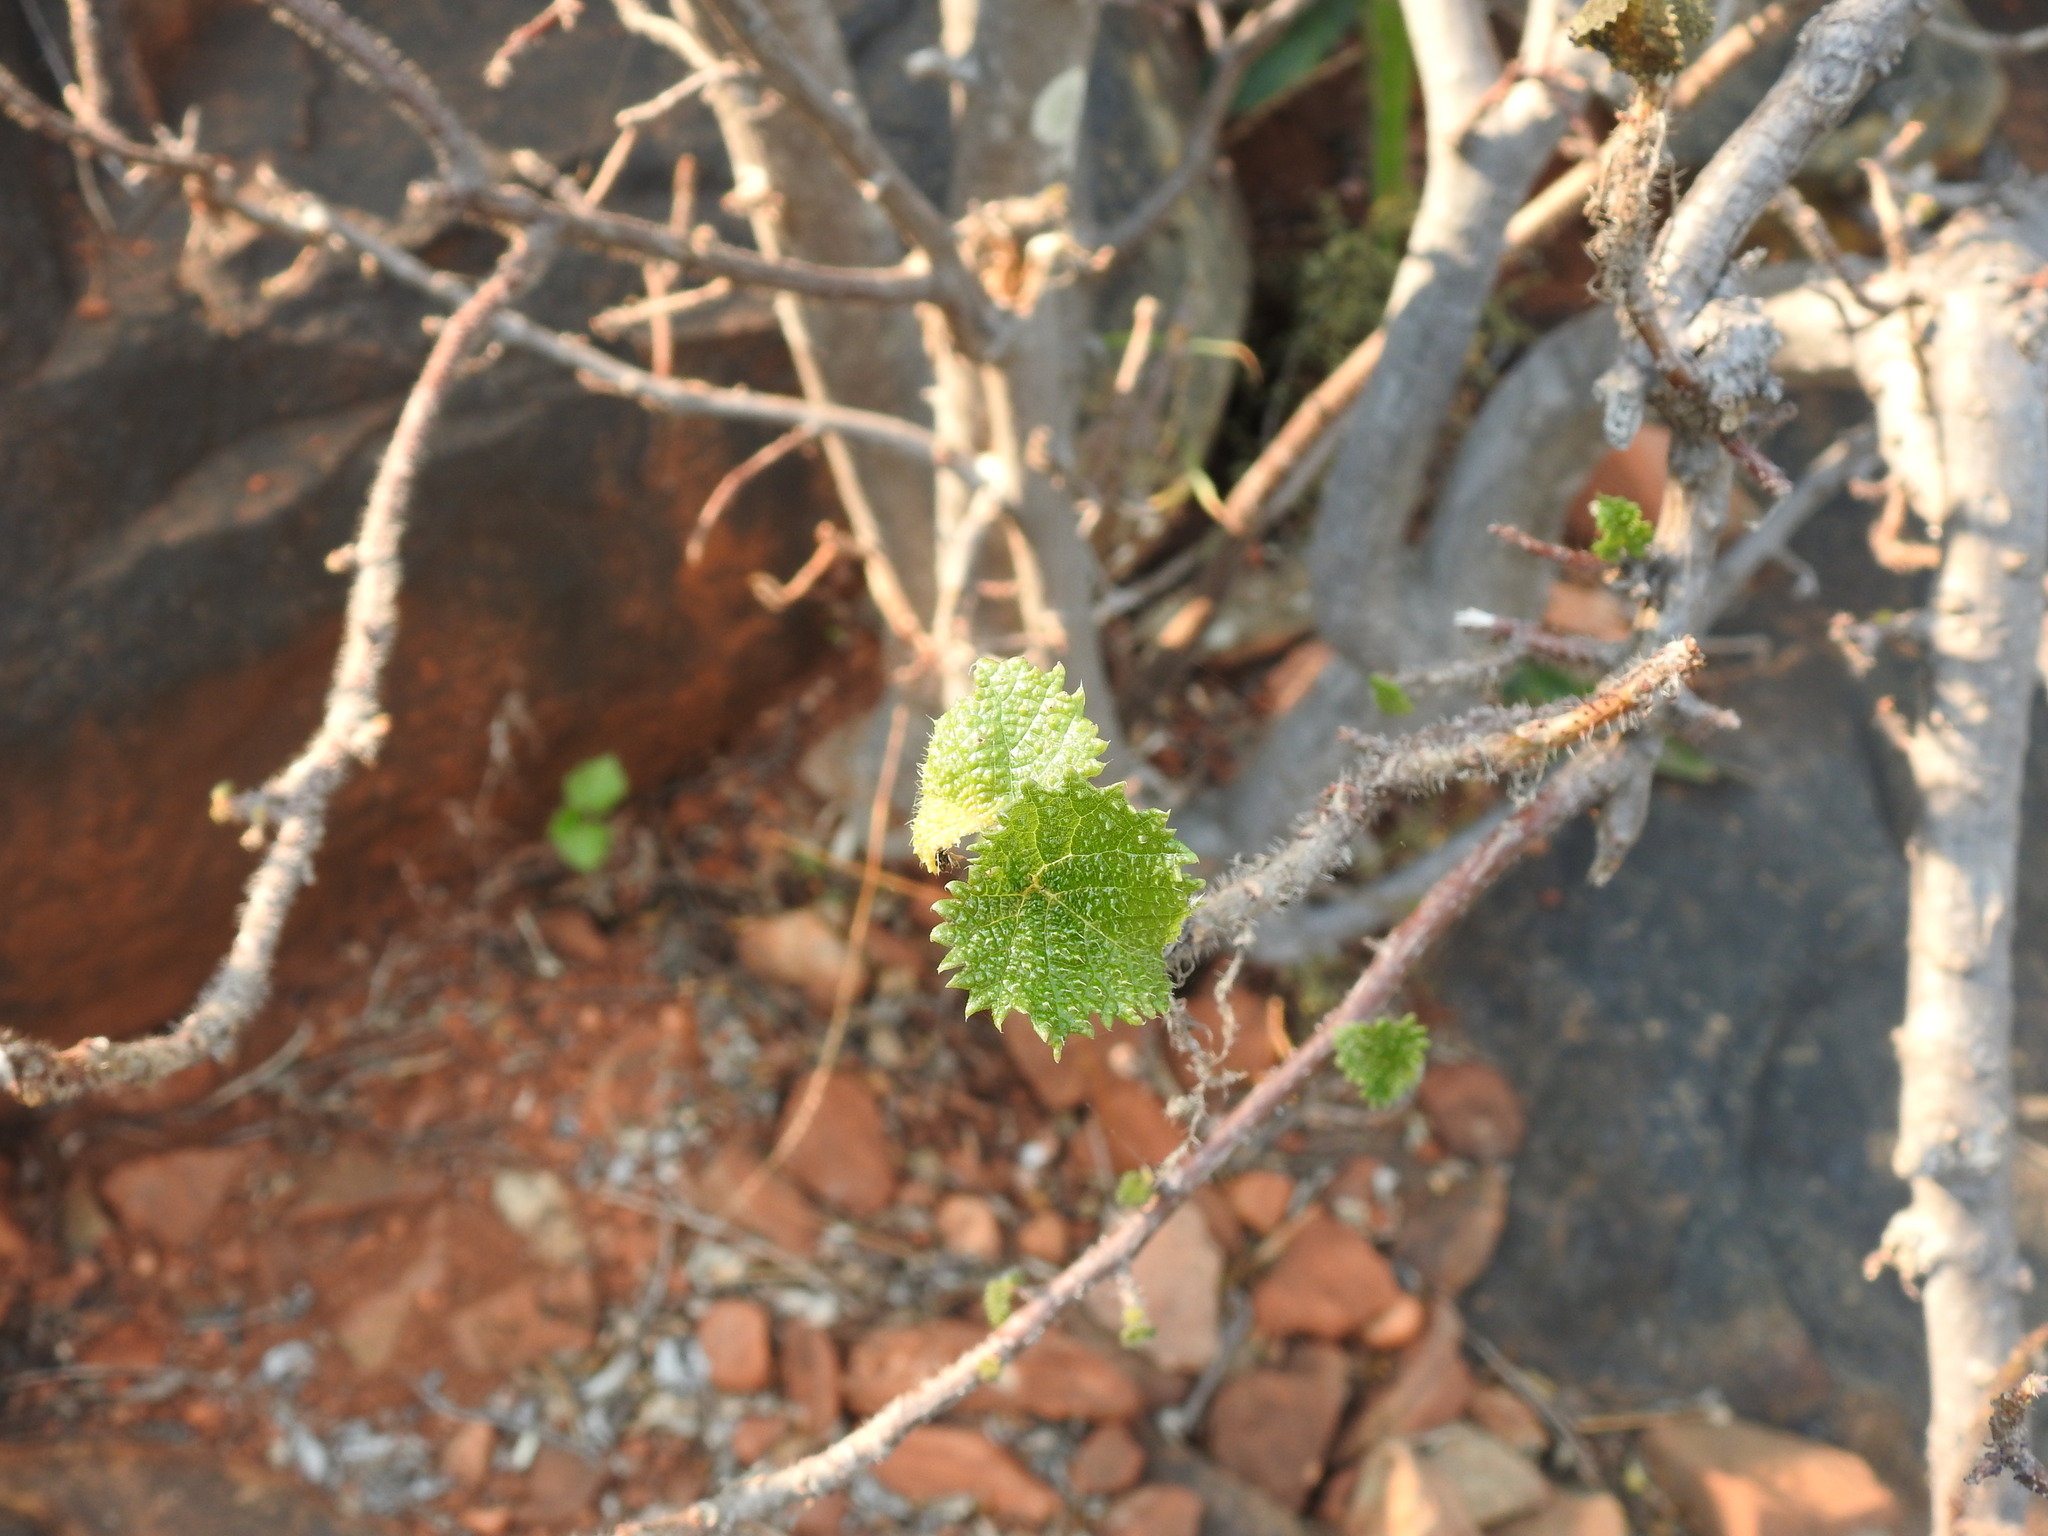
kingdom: Plantae
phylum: Tracheophyta
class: Magnoliopsida
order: Rosales
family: Urticaceae
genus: Obetia
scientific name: Obetia tenax
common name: Rock tree nettle
